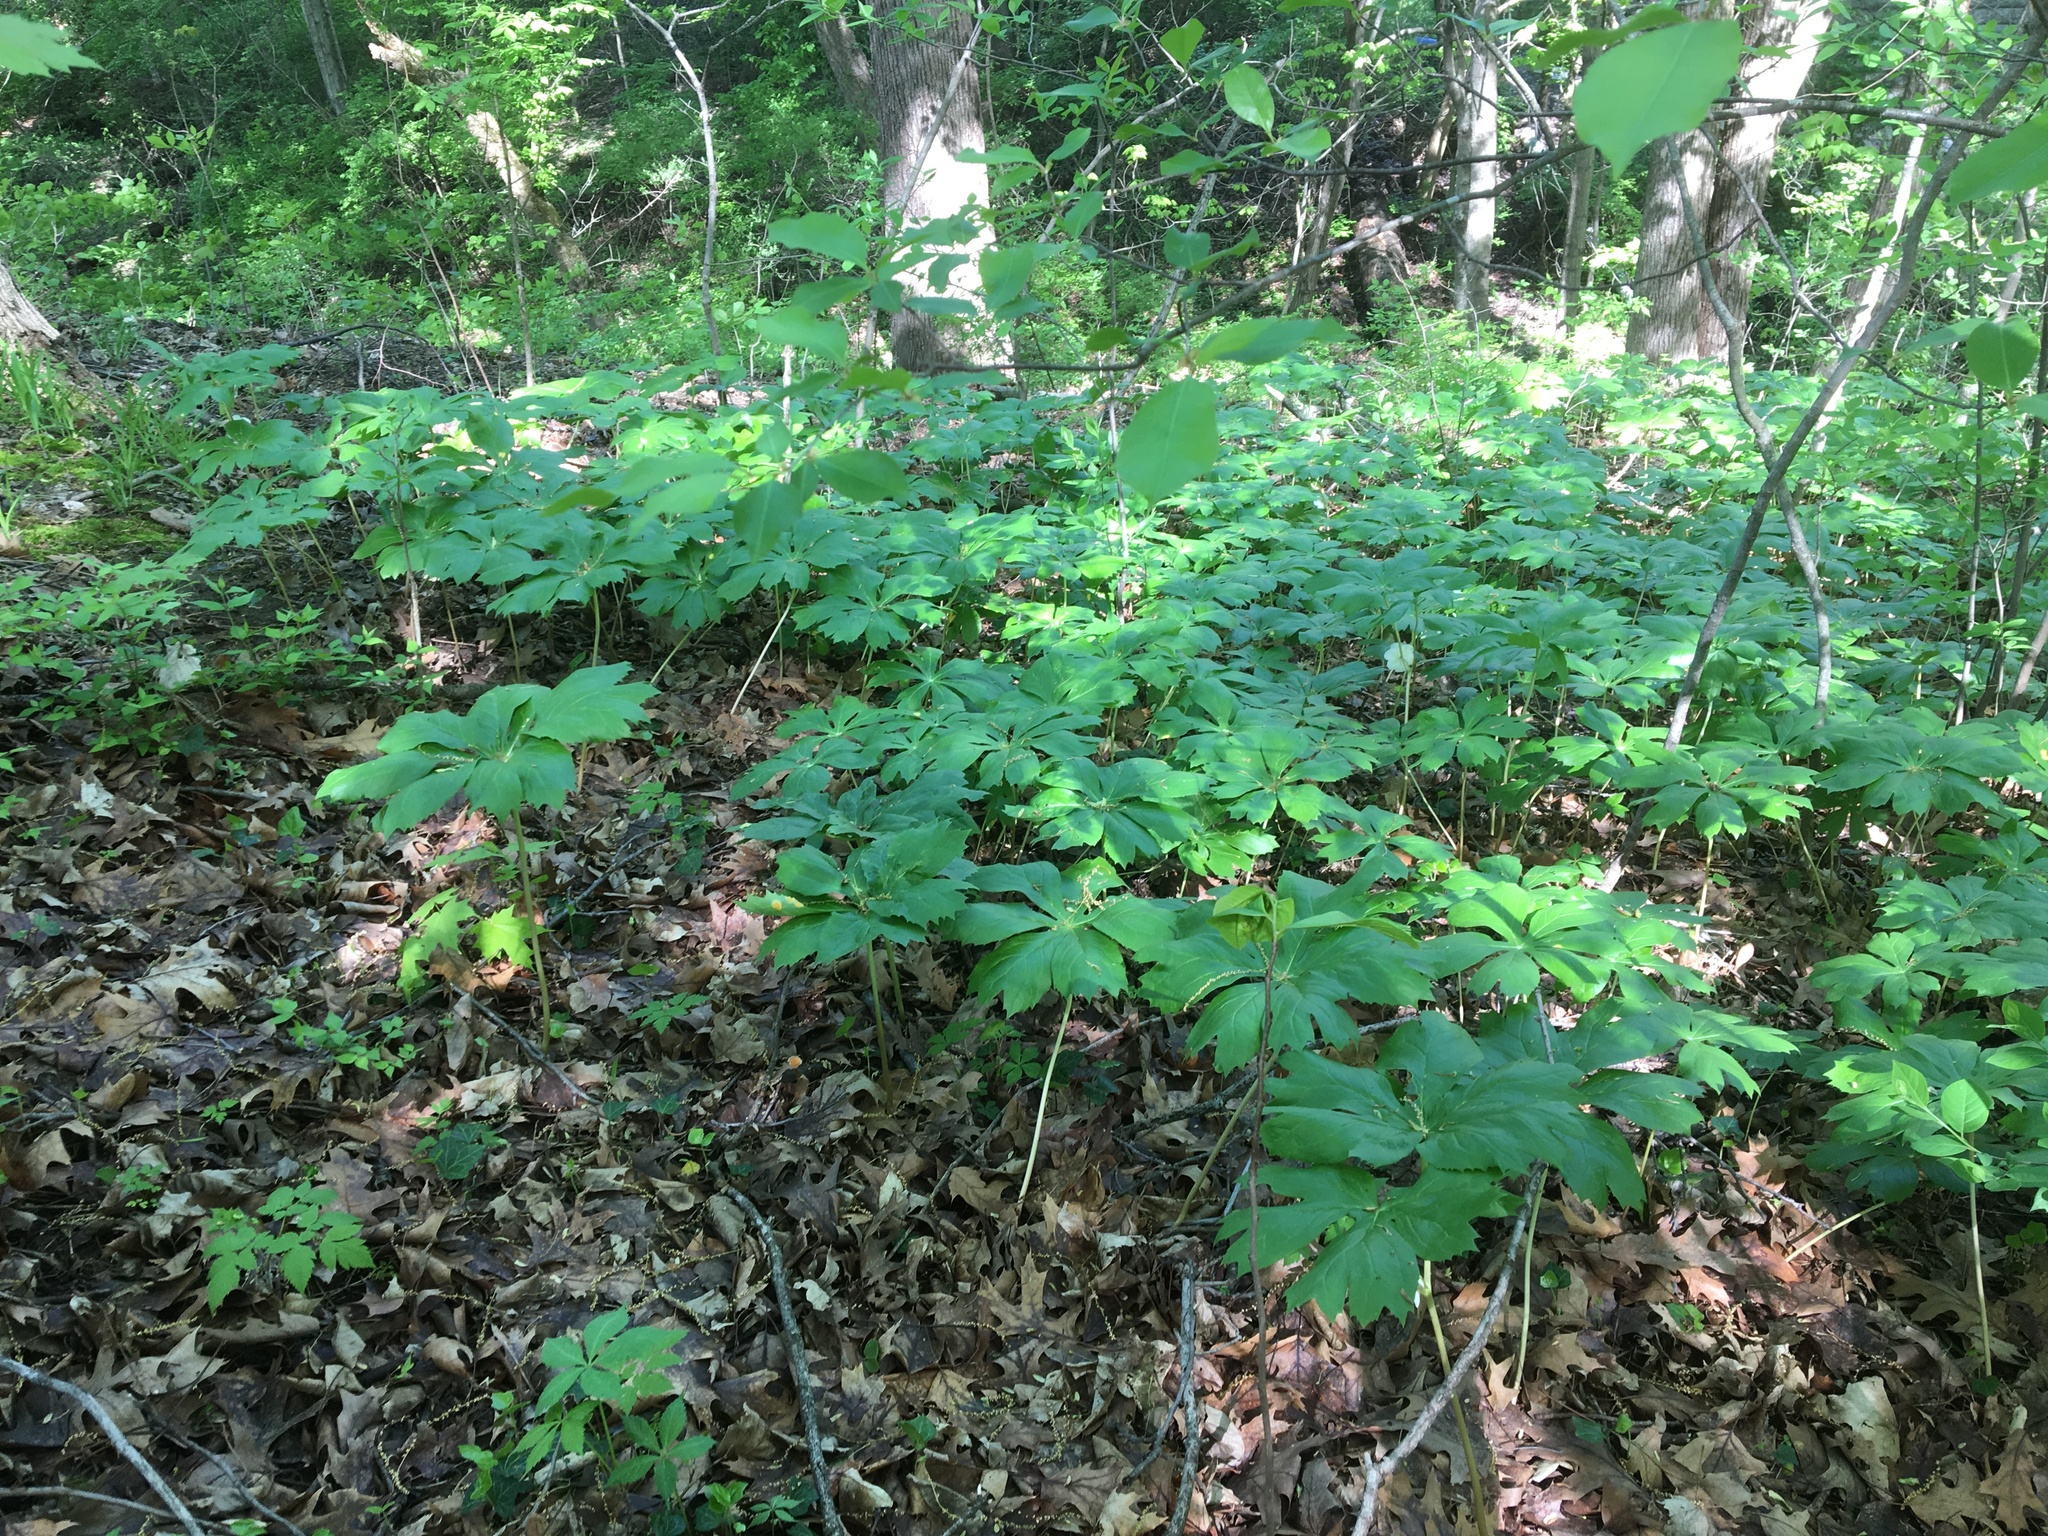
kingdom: Plantae
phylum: Tracheophyta
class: Magnoliopsida
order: Ranunculales
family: Berberidaceae
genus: Podophyllum
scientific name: Podophyllum peltatum
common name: Wild mandrake
